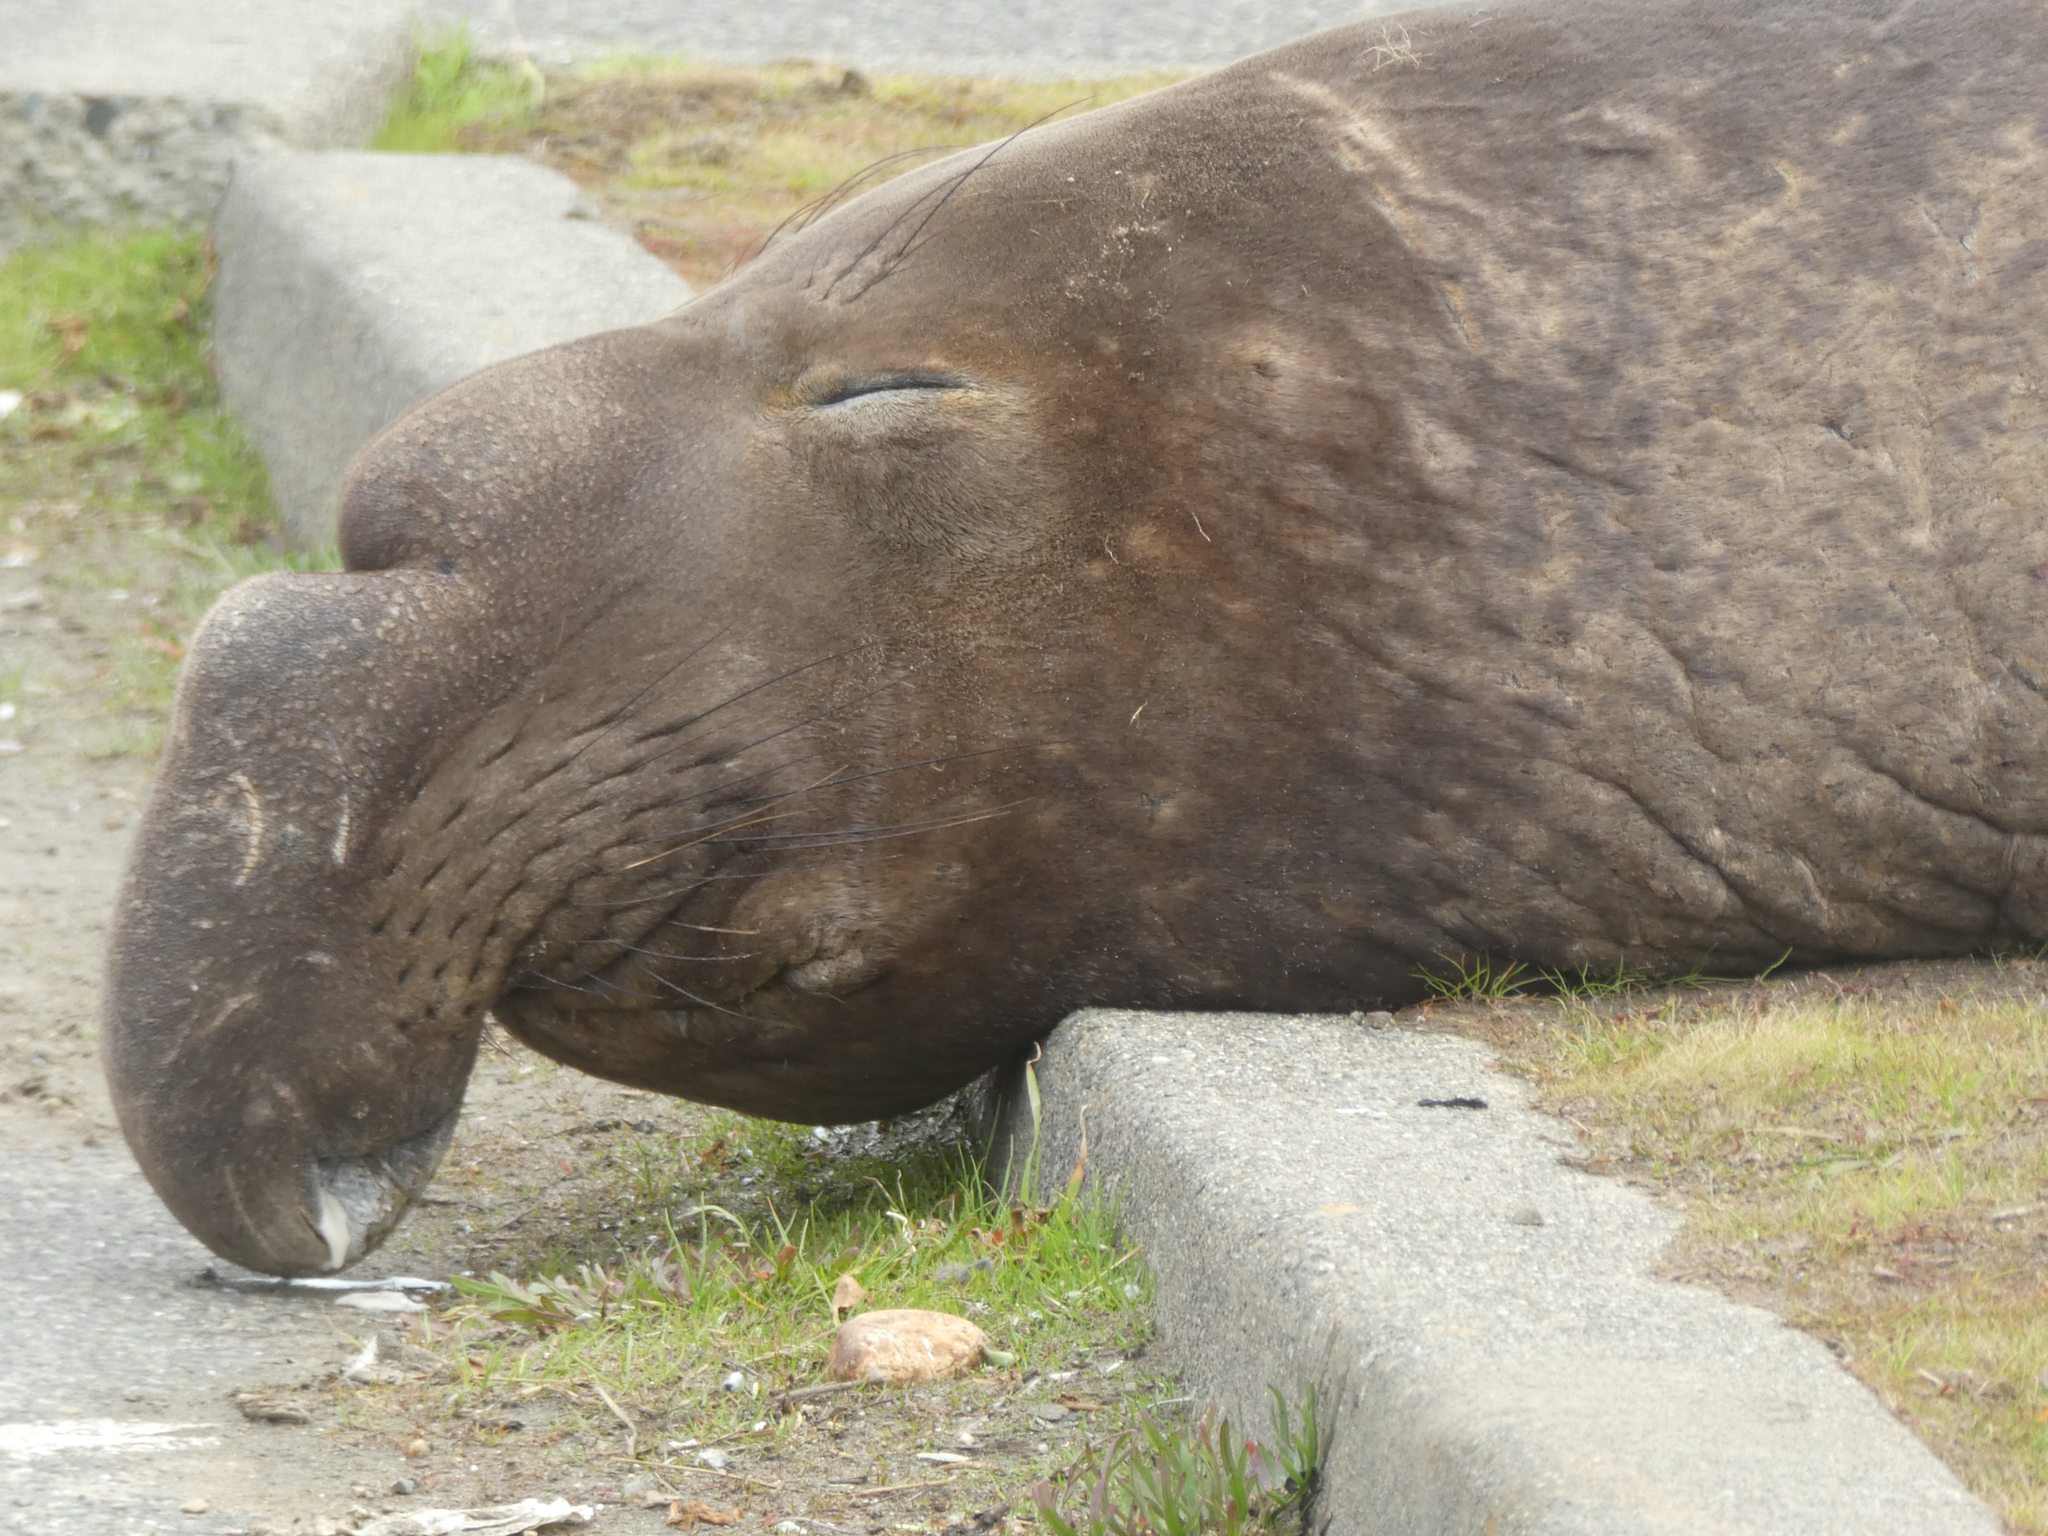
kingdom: Animalia
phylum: Chordata
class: Mammalia
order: Carnivora
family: Phocidae
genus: Mirounga
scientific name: Mirounga angustirostris
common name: Northern elephant seal
